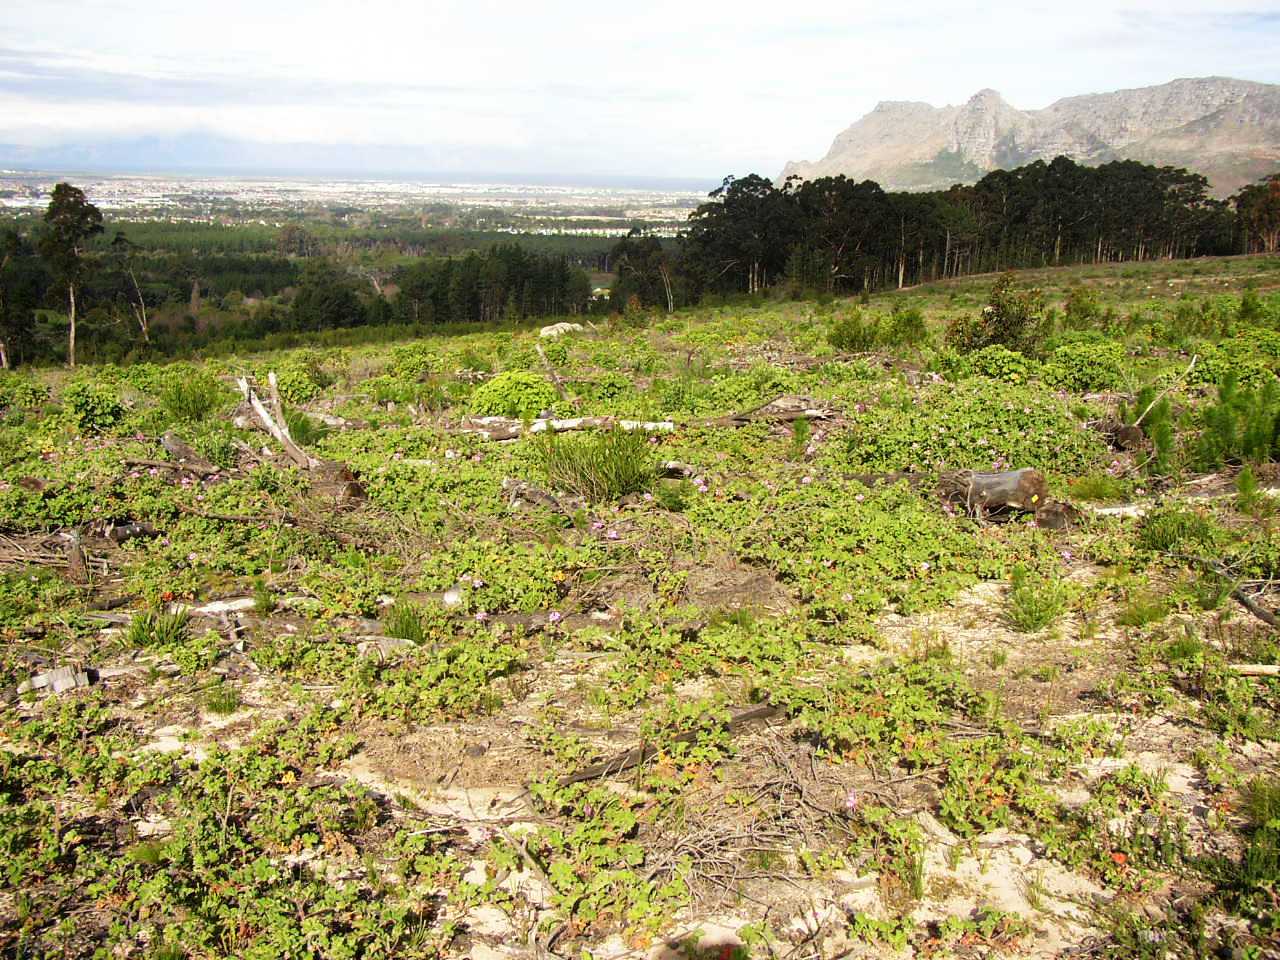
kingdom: Plantae
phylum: Tracheophyta
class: Magnoliopsida
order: Geraniales
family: Geraniaceae
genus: Pelargonium
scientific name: Pelargonium capitatum
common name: Rose scented geranium
